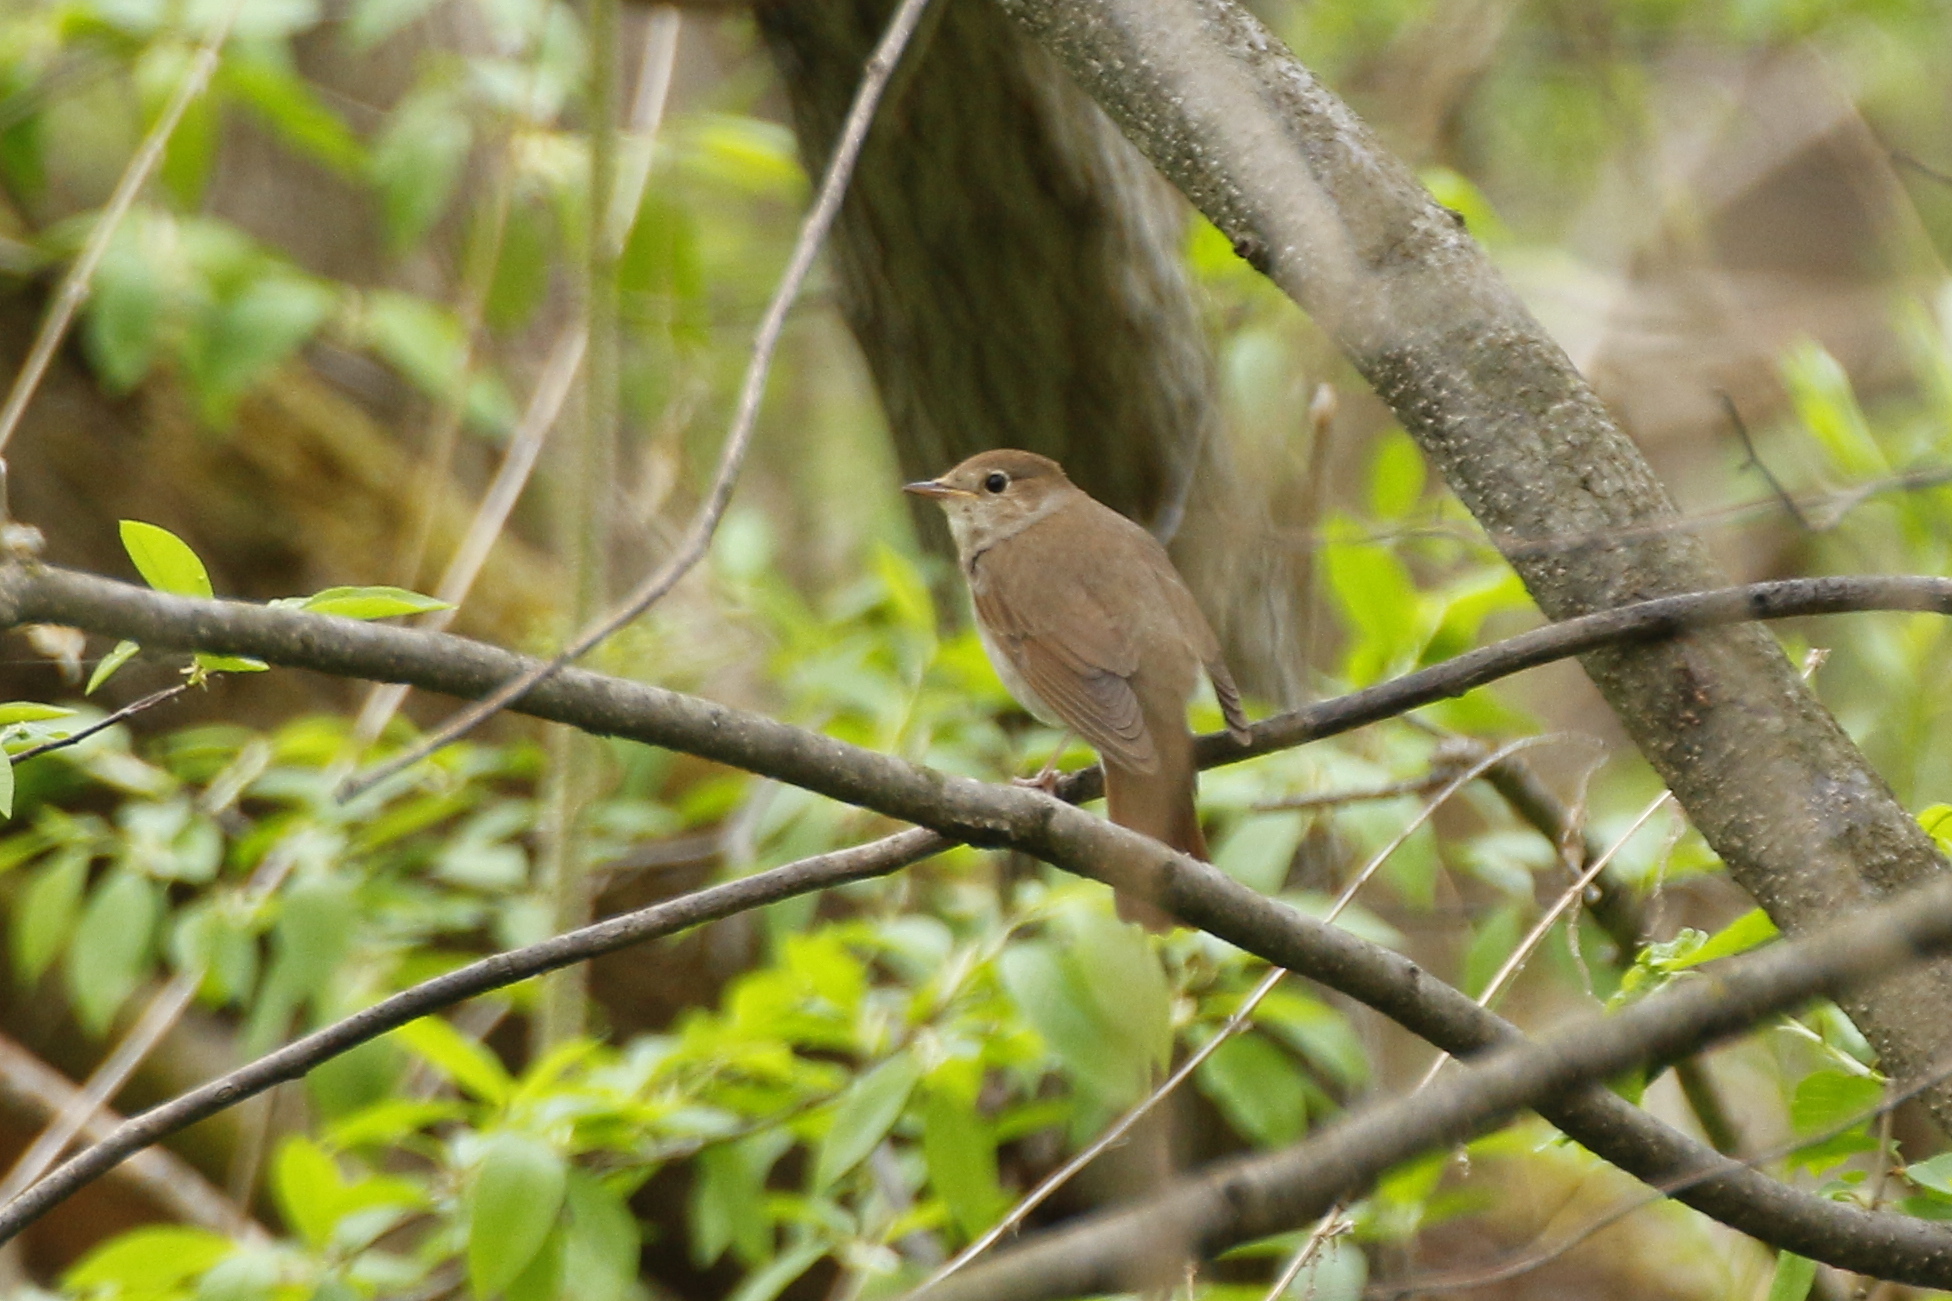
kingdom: Animalia
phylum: Chordata
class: Aves
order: Passeriformes
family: Muscicapidae
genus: Luscinia
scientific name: Luscinia luscinia
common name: Thrush nightingale
